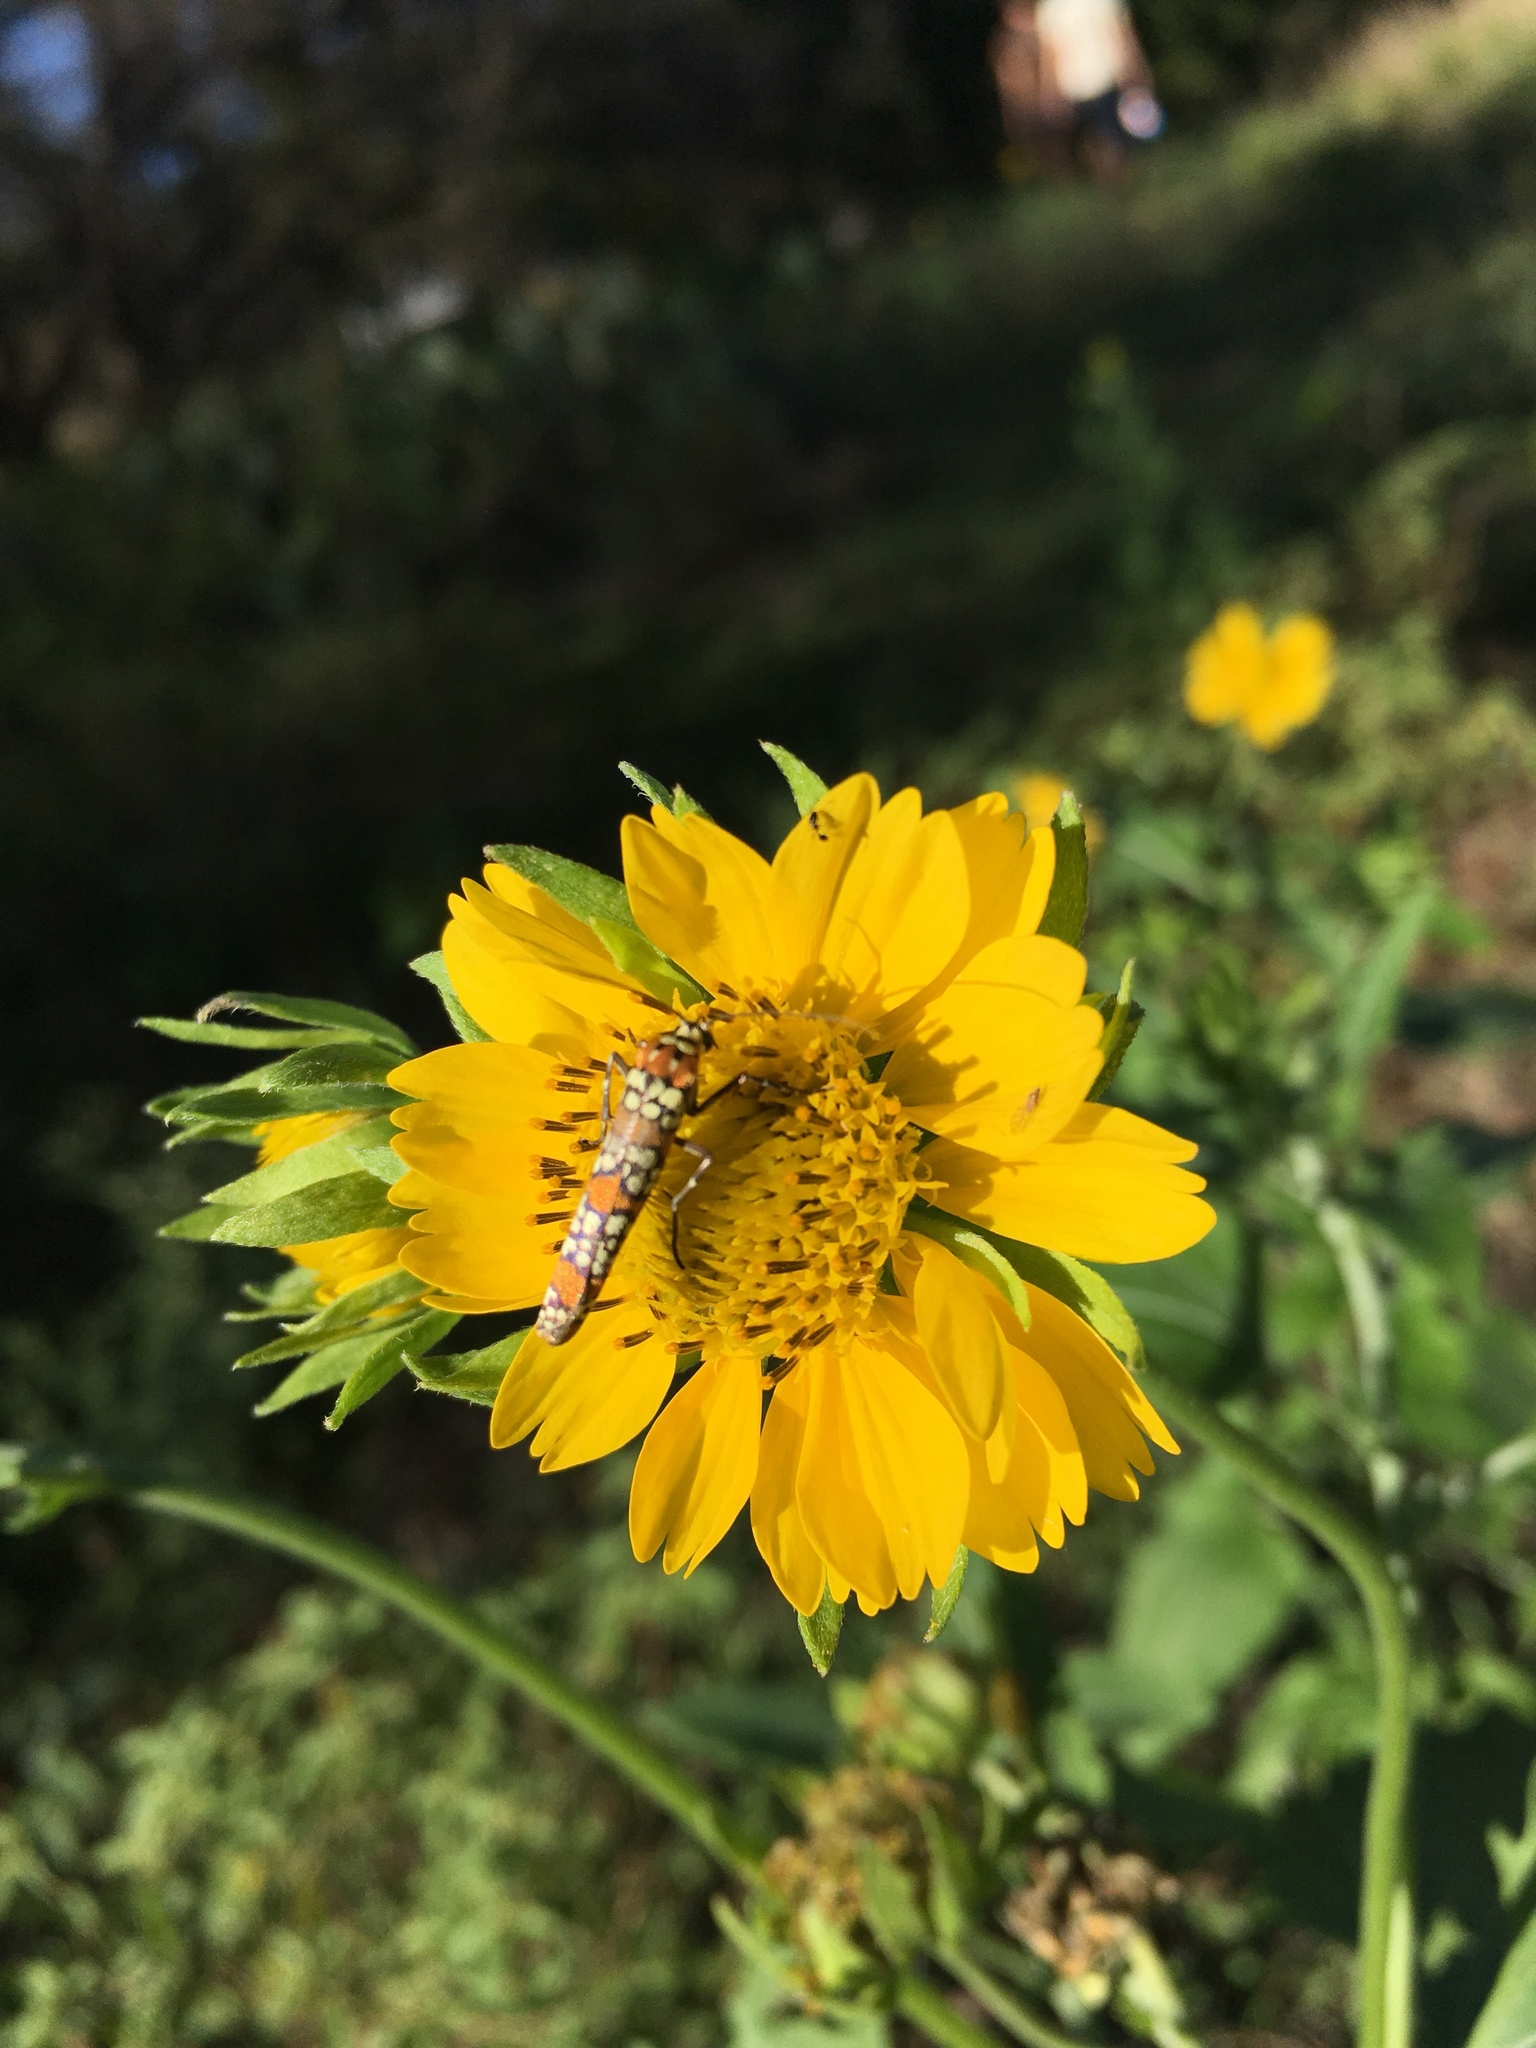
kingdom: Animalia
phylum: Arthropoda
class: Insecta
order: Lepidoptera
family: Attevidae
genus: Atteva
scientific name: Atteva punctella
